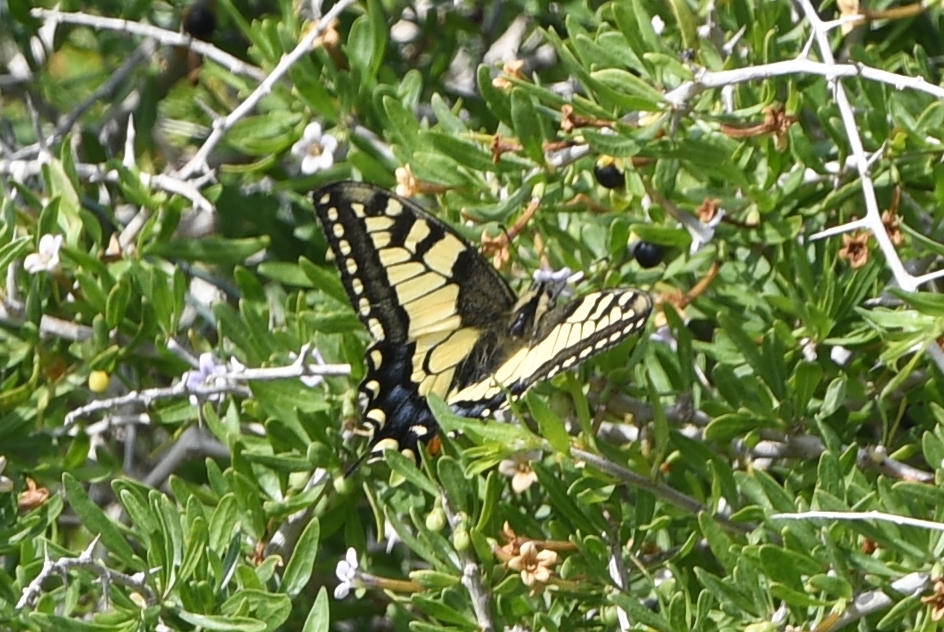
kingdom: Animalia
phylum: Arthropoda
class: Insecta
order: Lepidoptera
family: Papilionidae
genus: Papilio
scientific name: Papilio machaon
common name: Swallowtail
